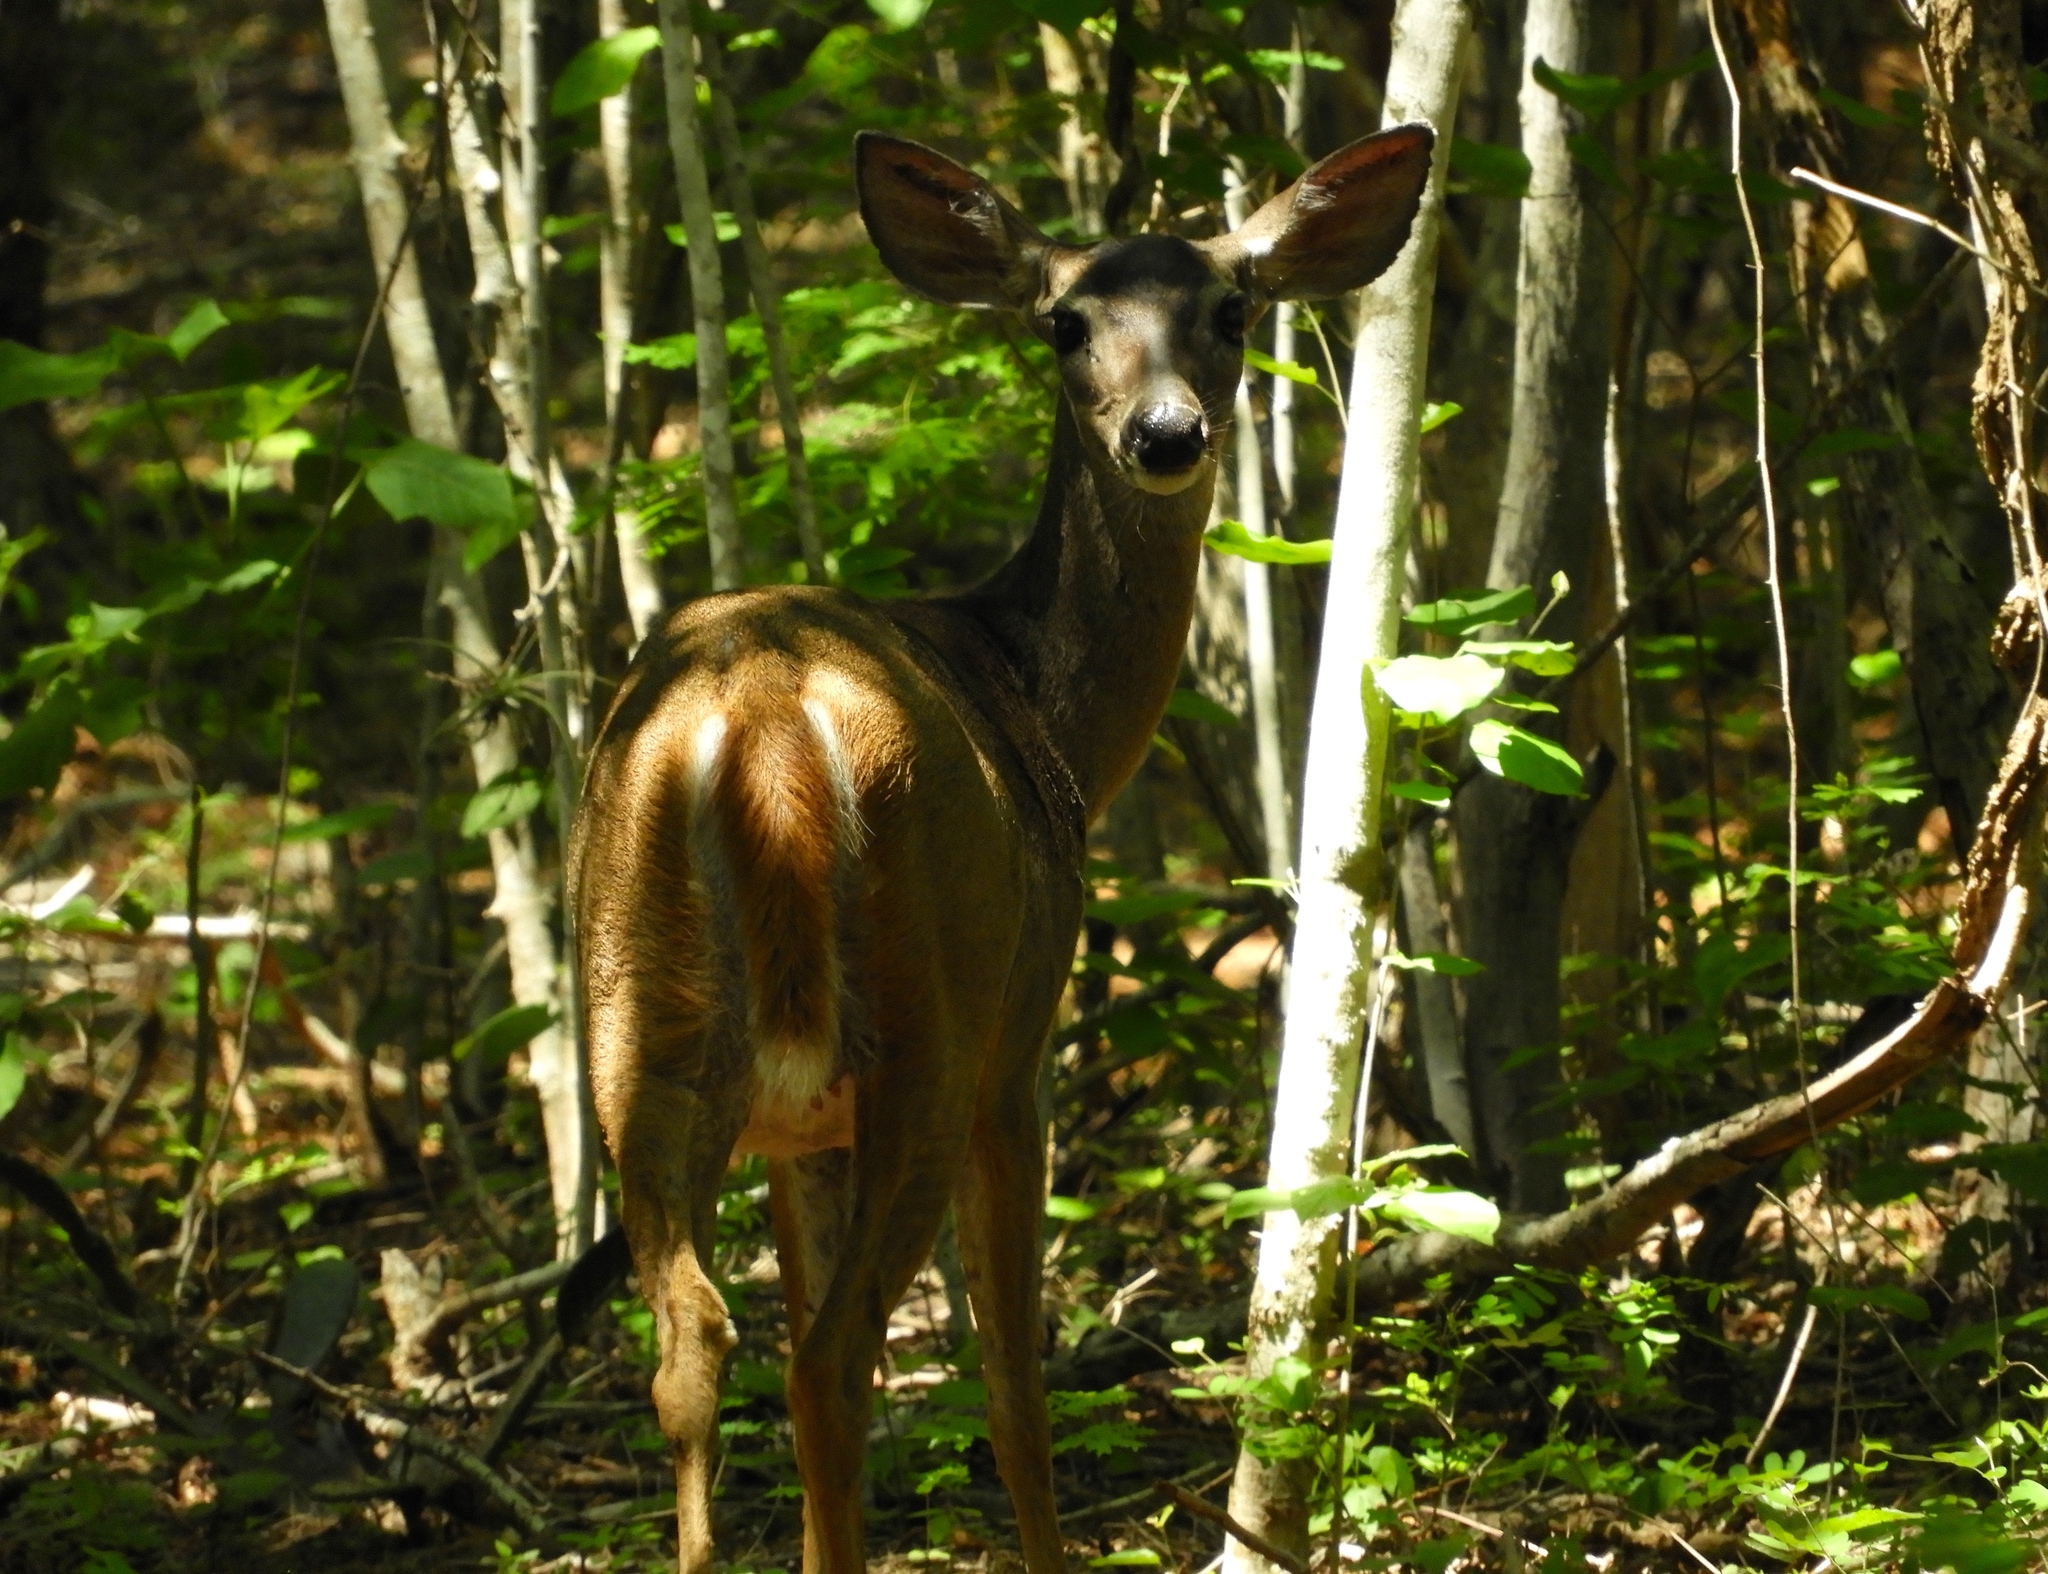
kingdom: Animalia
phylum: Chordata
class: Mammalia
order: Artiodactyla
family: Cervidae
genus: Odocoileus
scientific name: Odocoileus virginianus
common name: White-tailed deer
